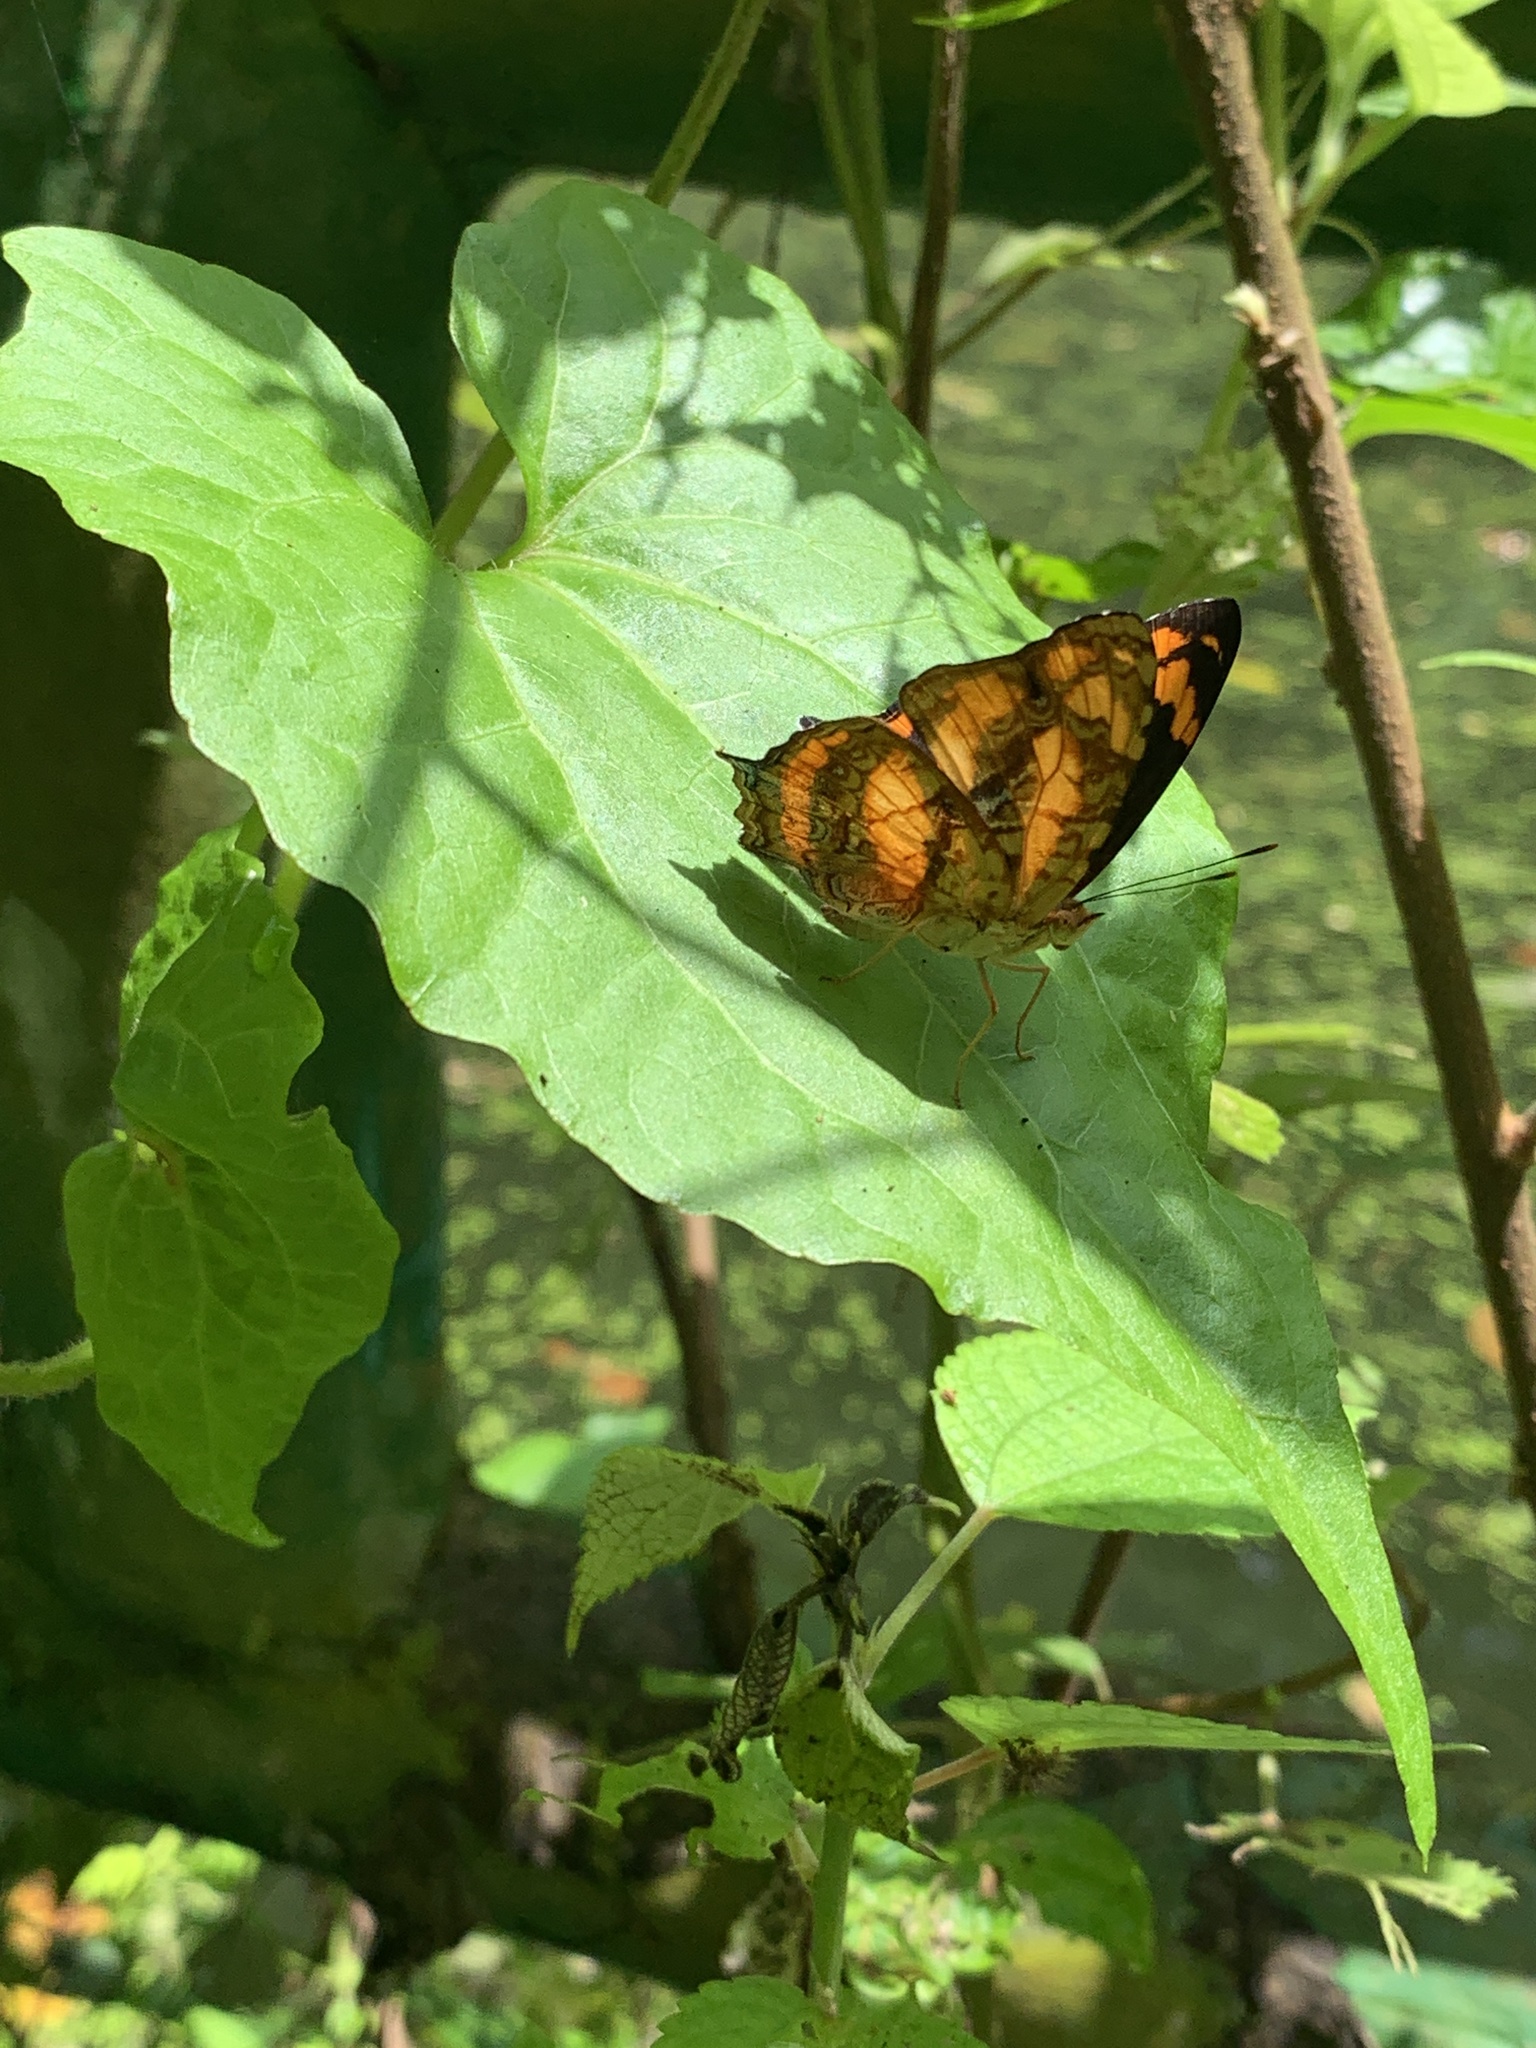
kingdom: Animalia
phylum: Arthropoda
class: Insecta
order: Lepidoptera
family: Nymphalidae
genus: Symbrenthia
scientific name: Symbrenthia hypselis
